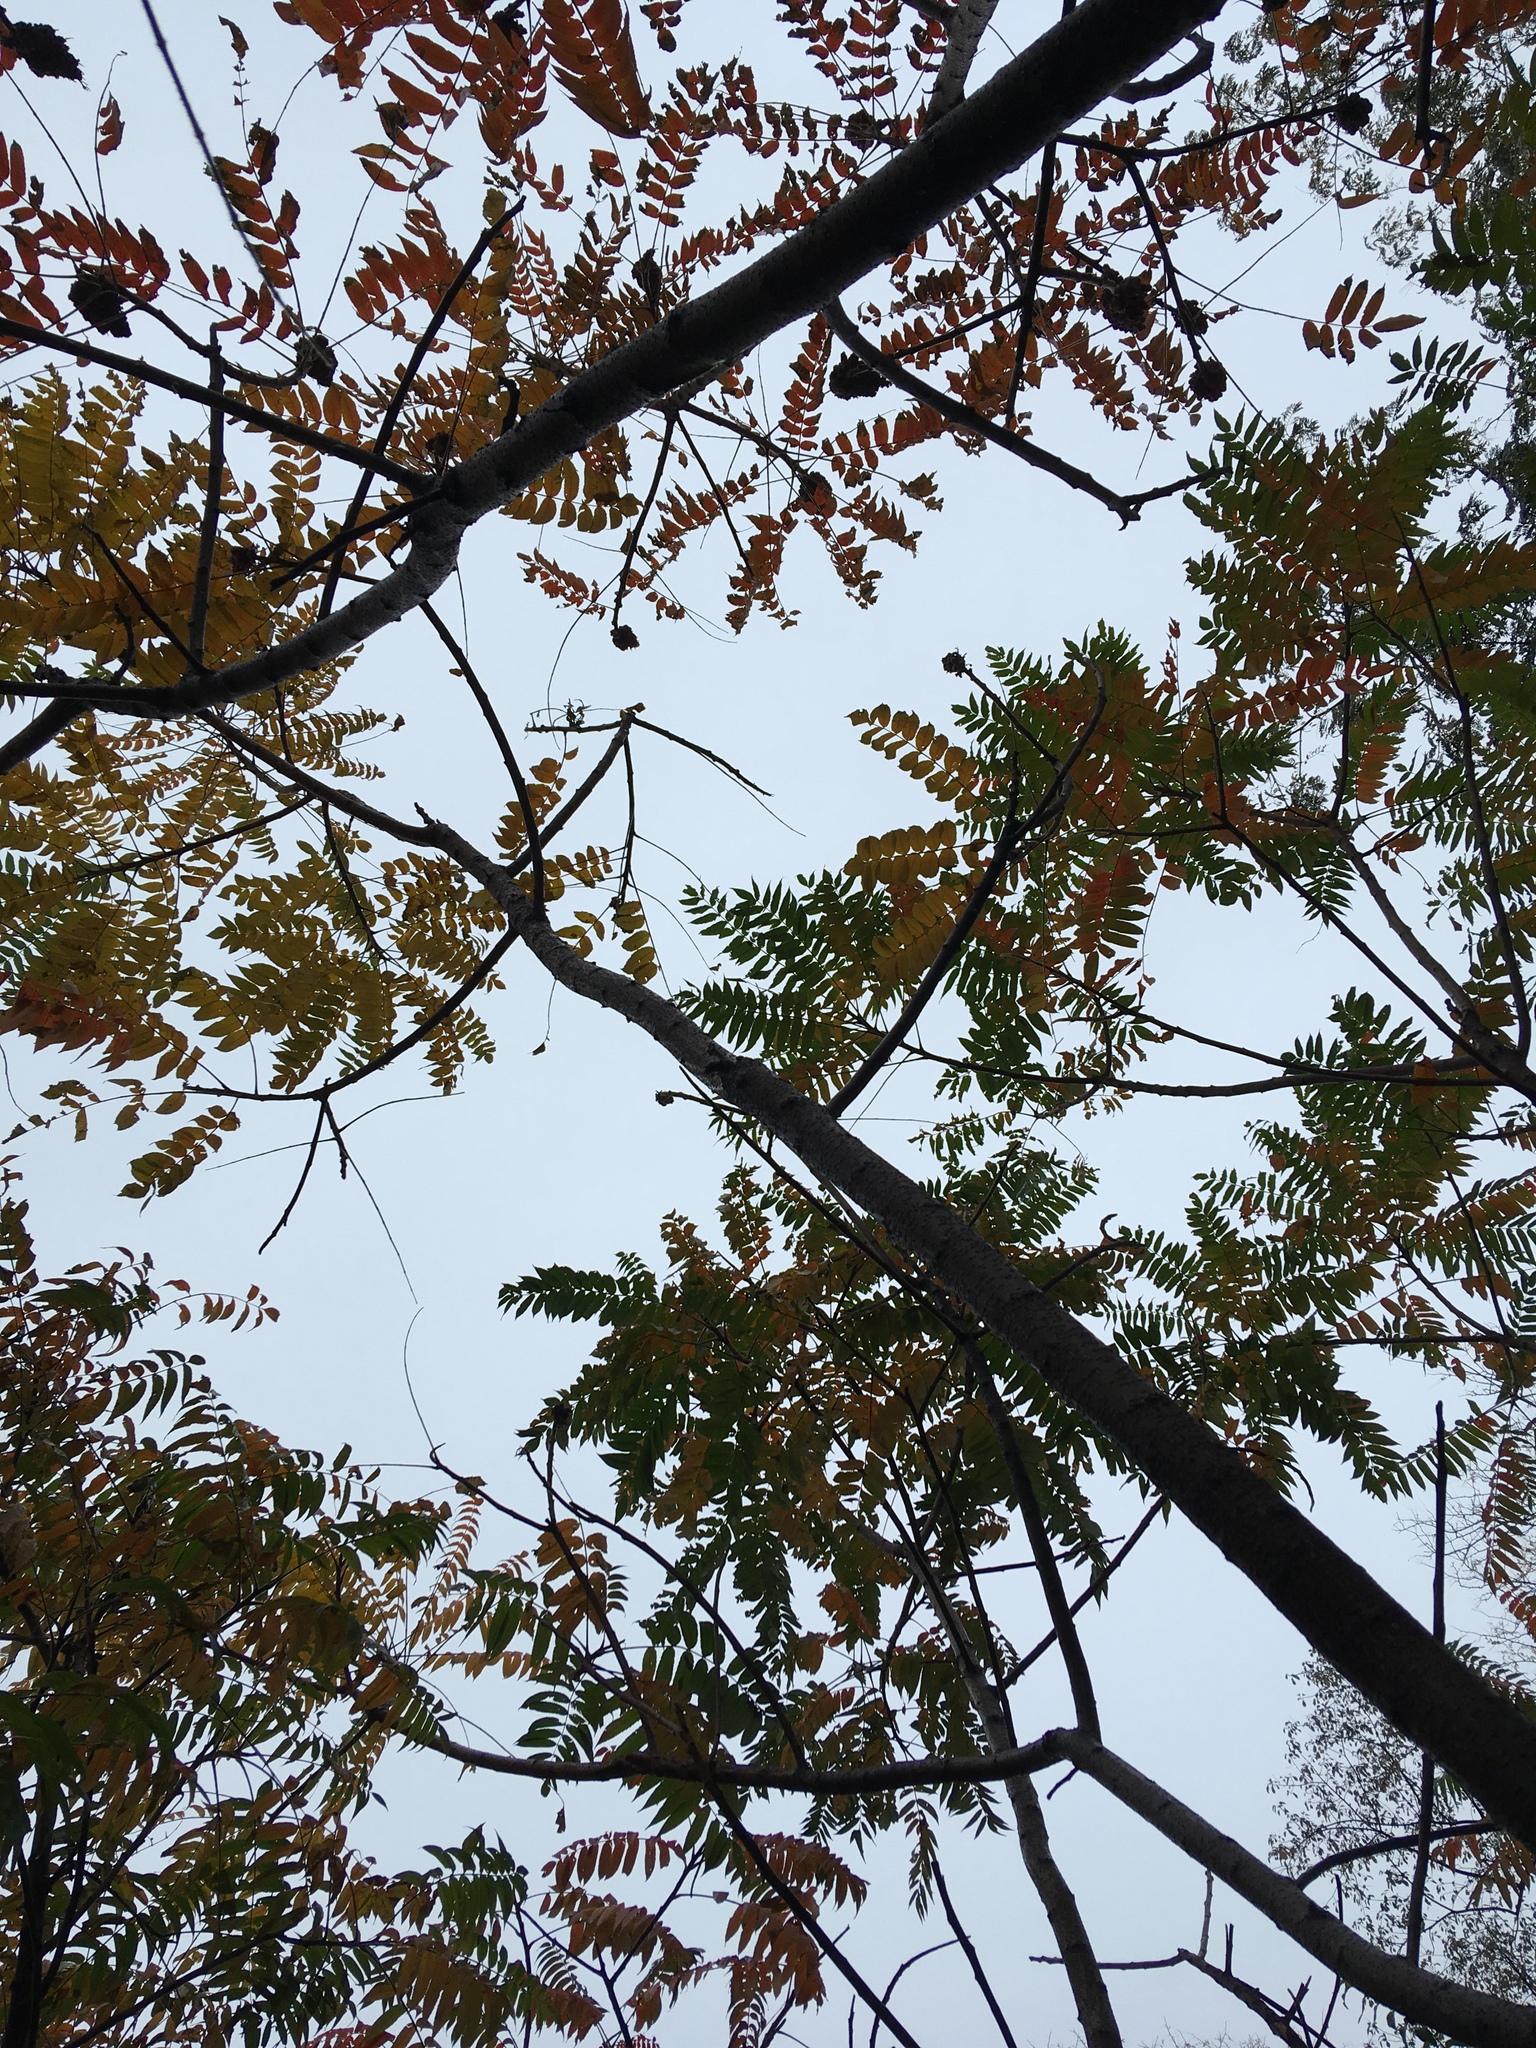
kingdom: Plantae
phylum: Tracheophyta
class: Magnoliopsida
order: Sapindales
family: Anacardiaceae
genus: Rhus
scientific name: Rhus typhina
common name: Staghorn sumac
